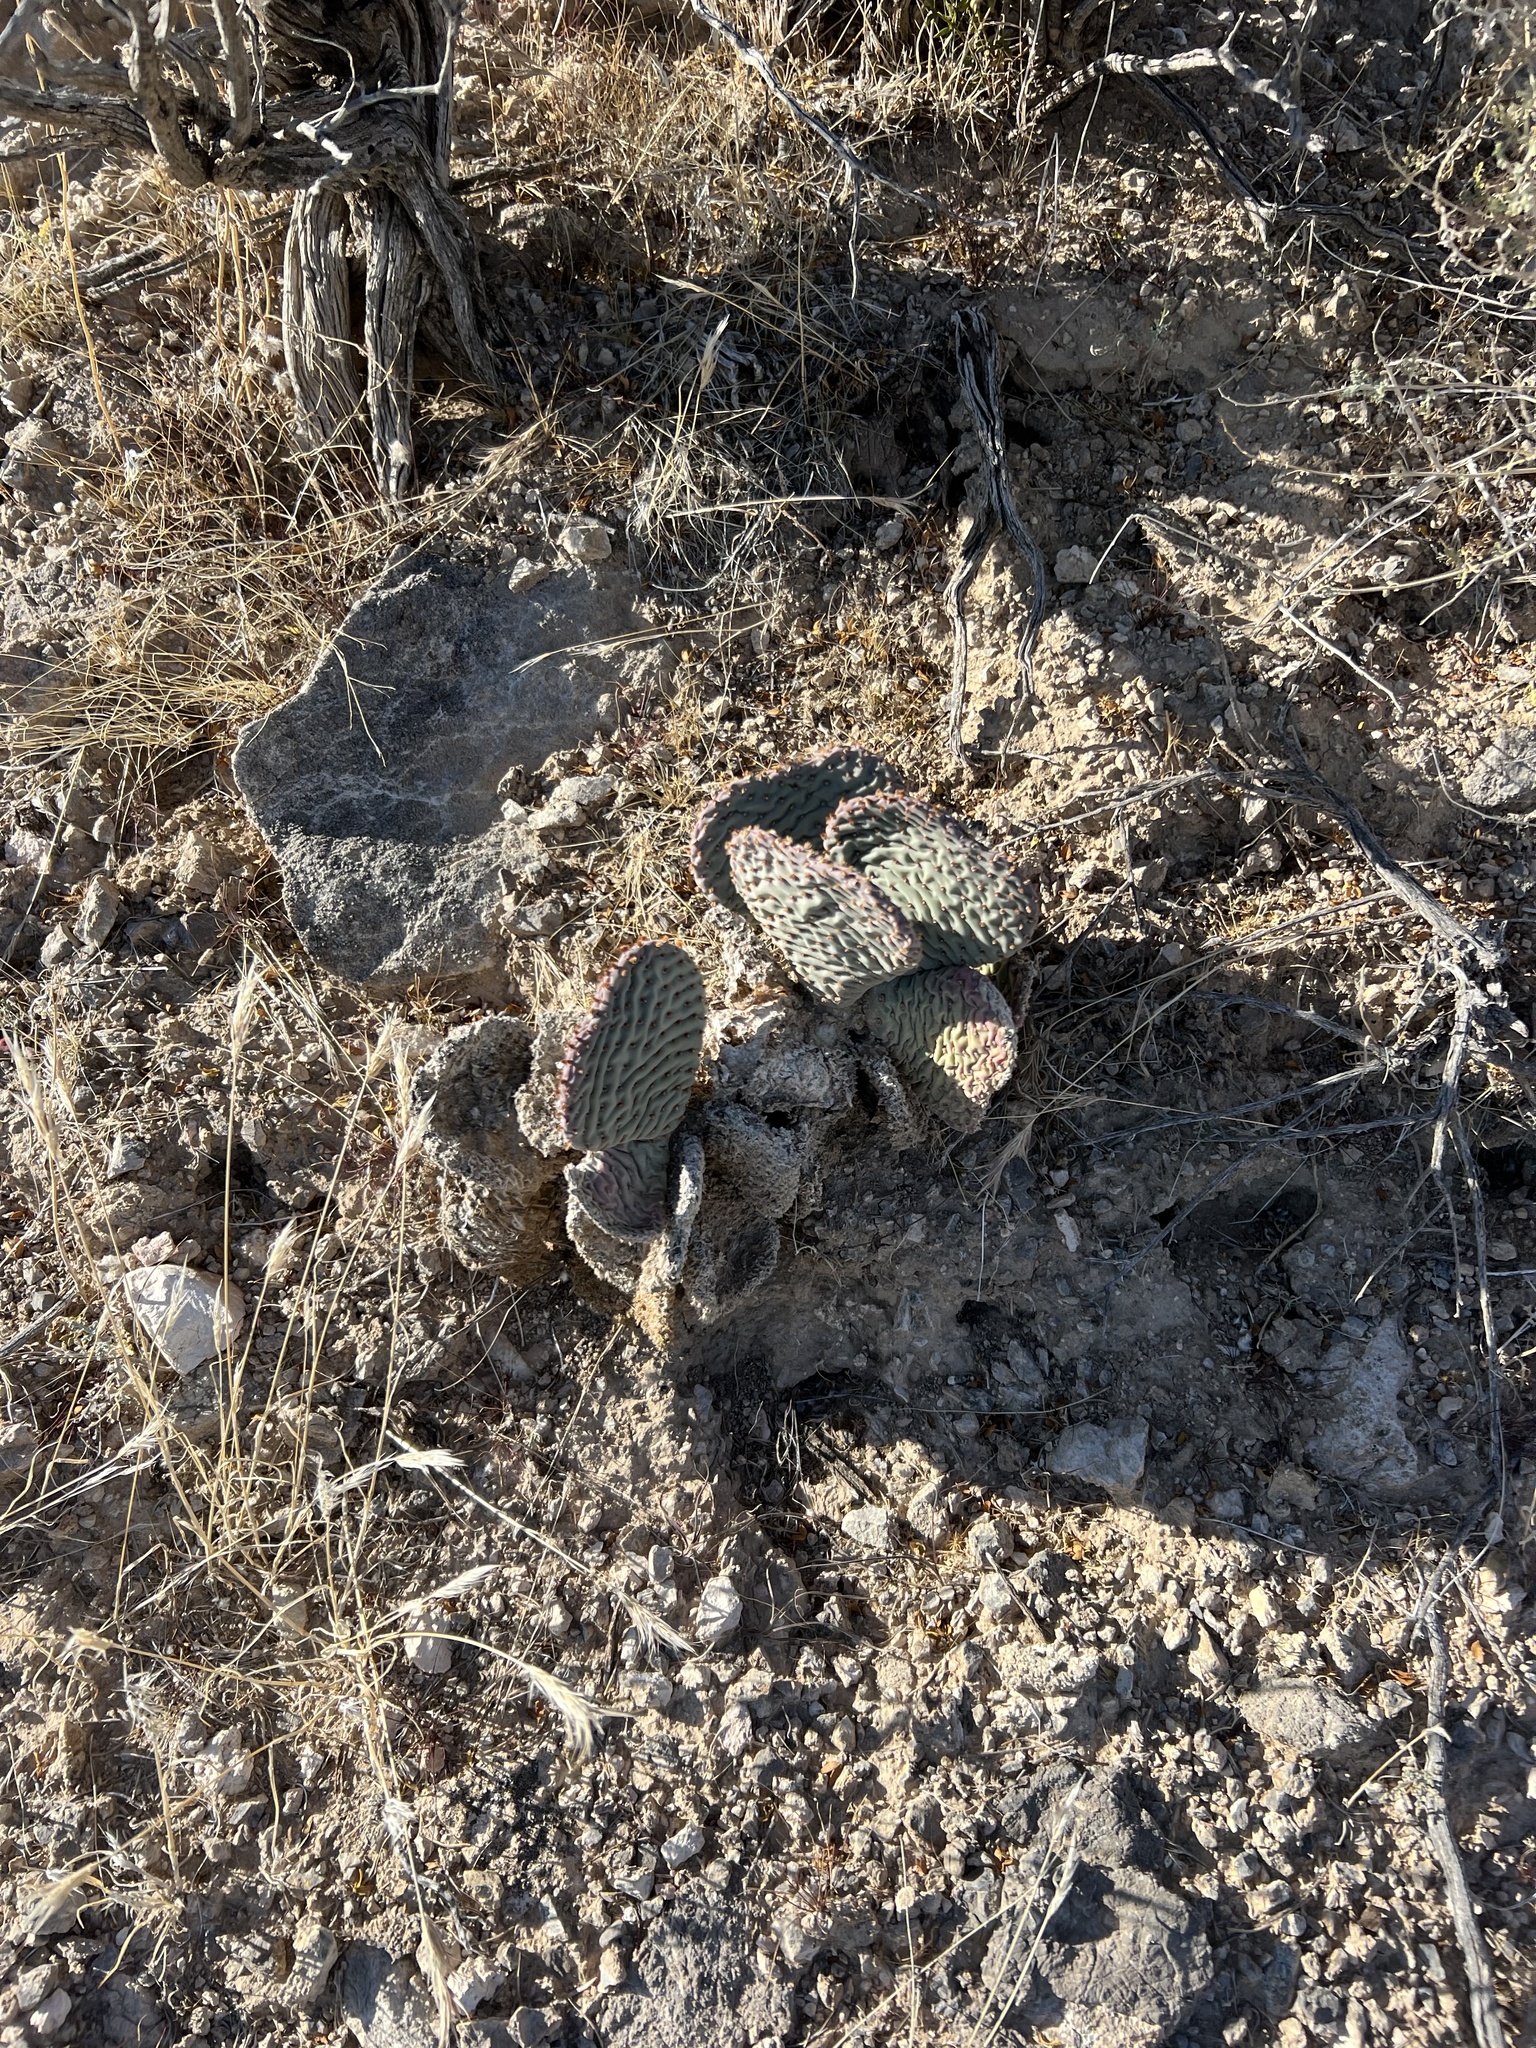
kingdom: Plantae
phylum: Tracheophyta
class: Magnoliopsida
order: Caryophyllales
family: Cactaceae
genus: Opuntia
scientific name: Opuntia basilaris
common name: Beavertail prickly-pear
